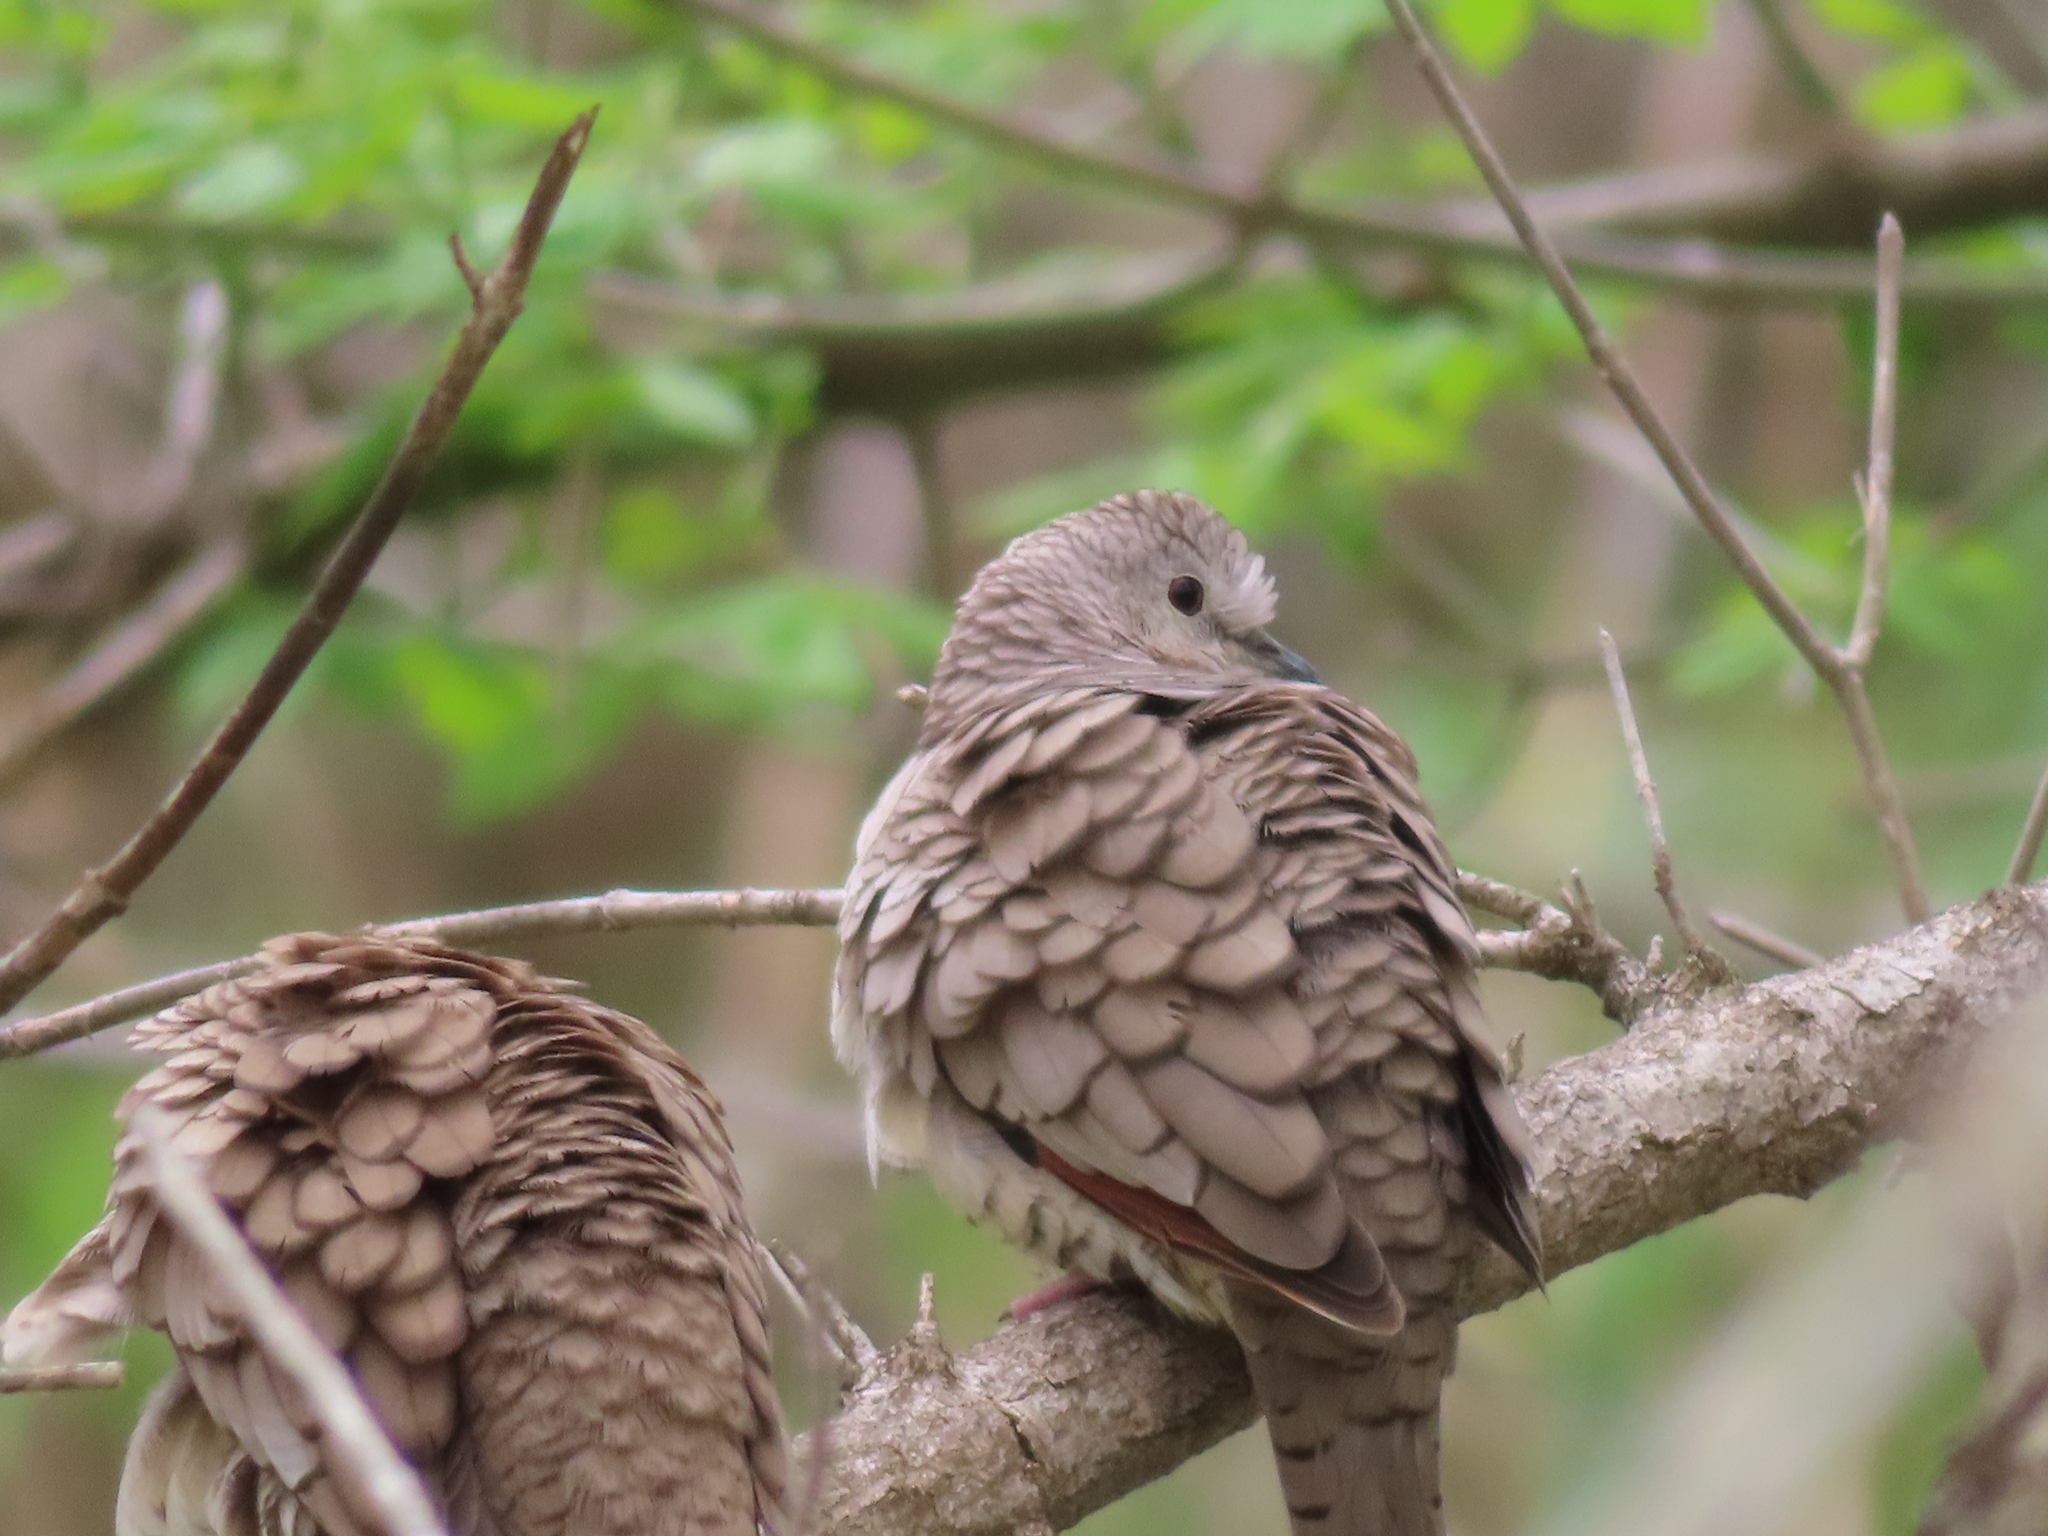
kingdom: Animalia
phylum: Chordata
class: Aves
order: Columbiformes
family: Columbidae
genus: Columbina
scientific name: Columbina inca
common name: Inca dove
